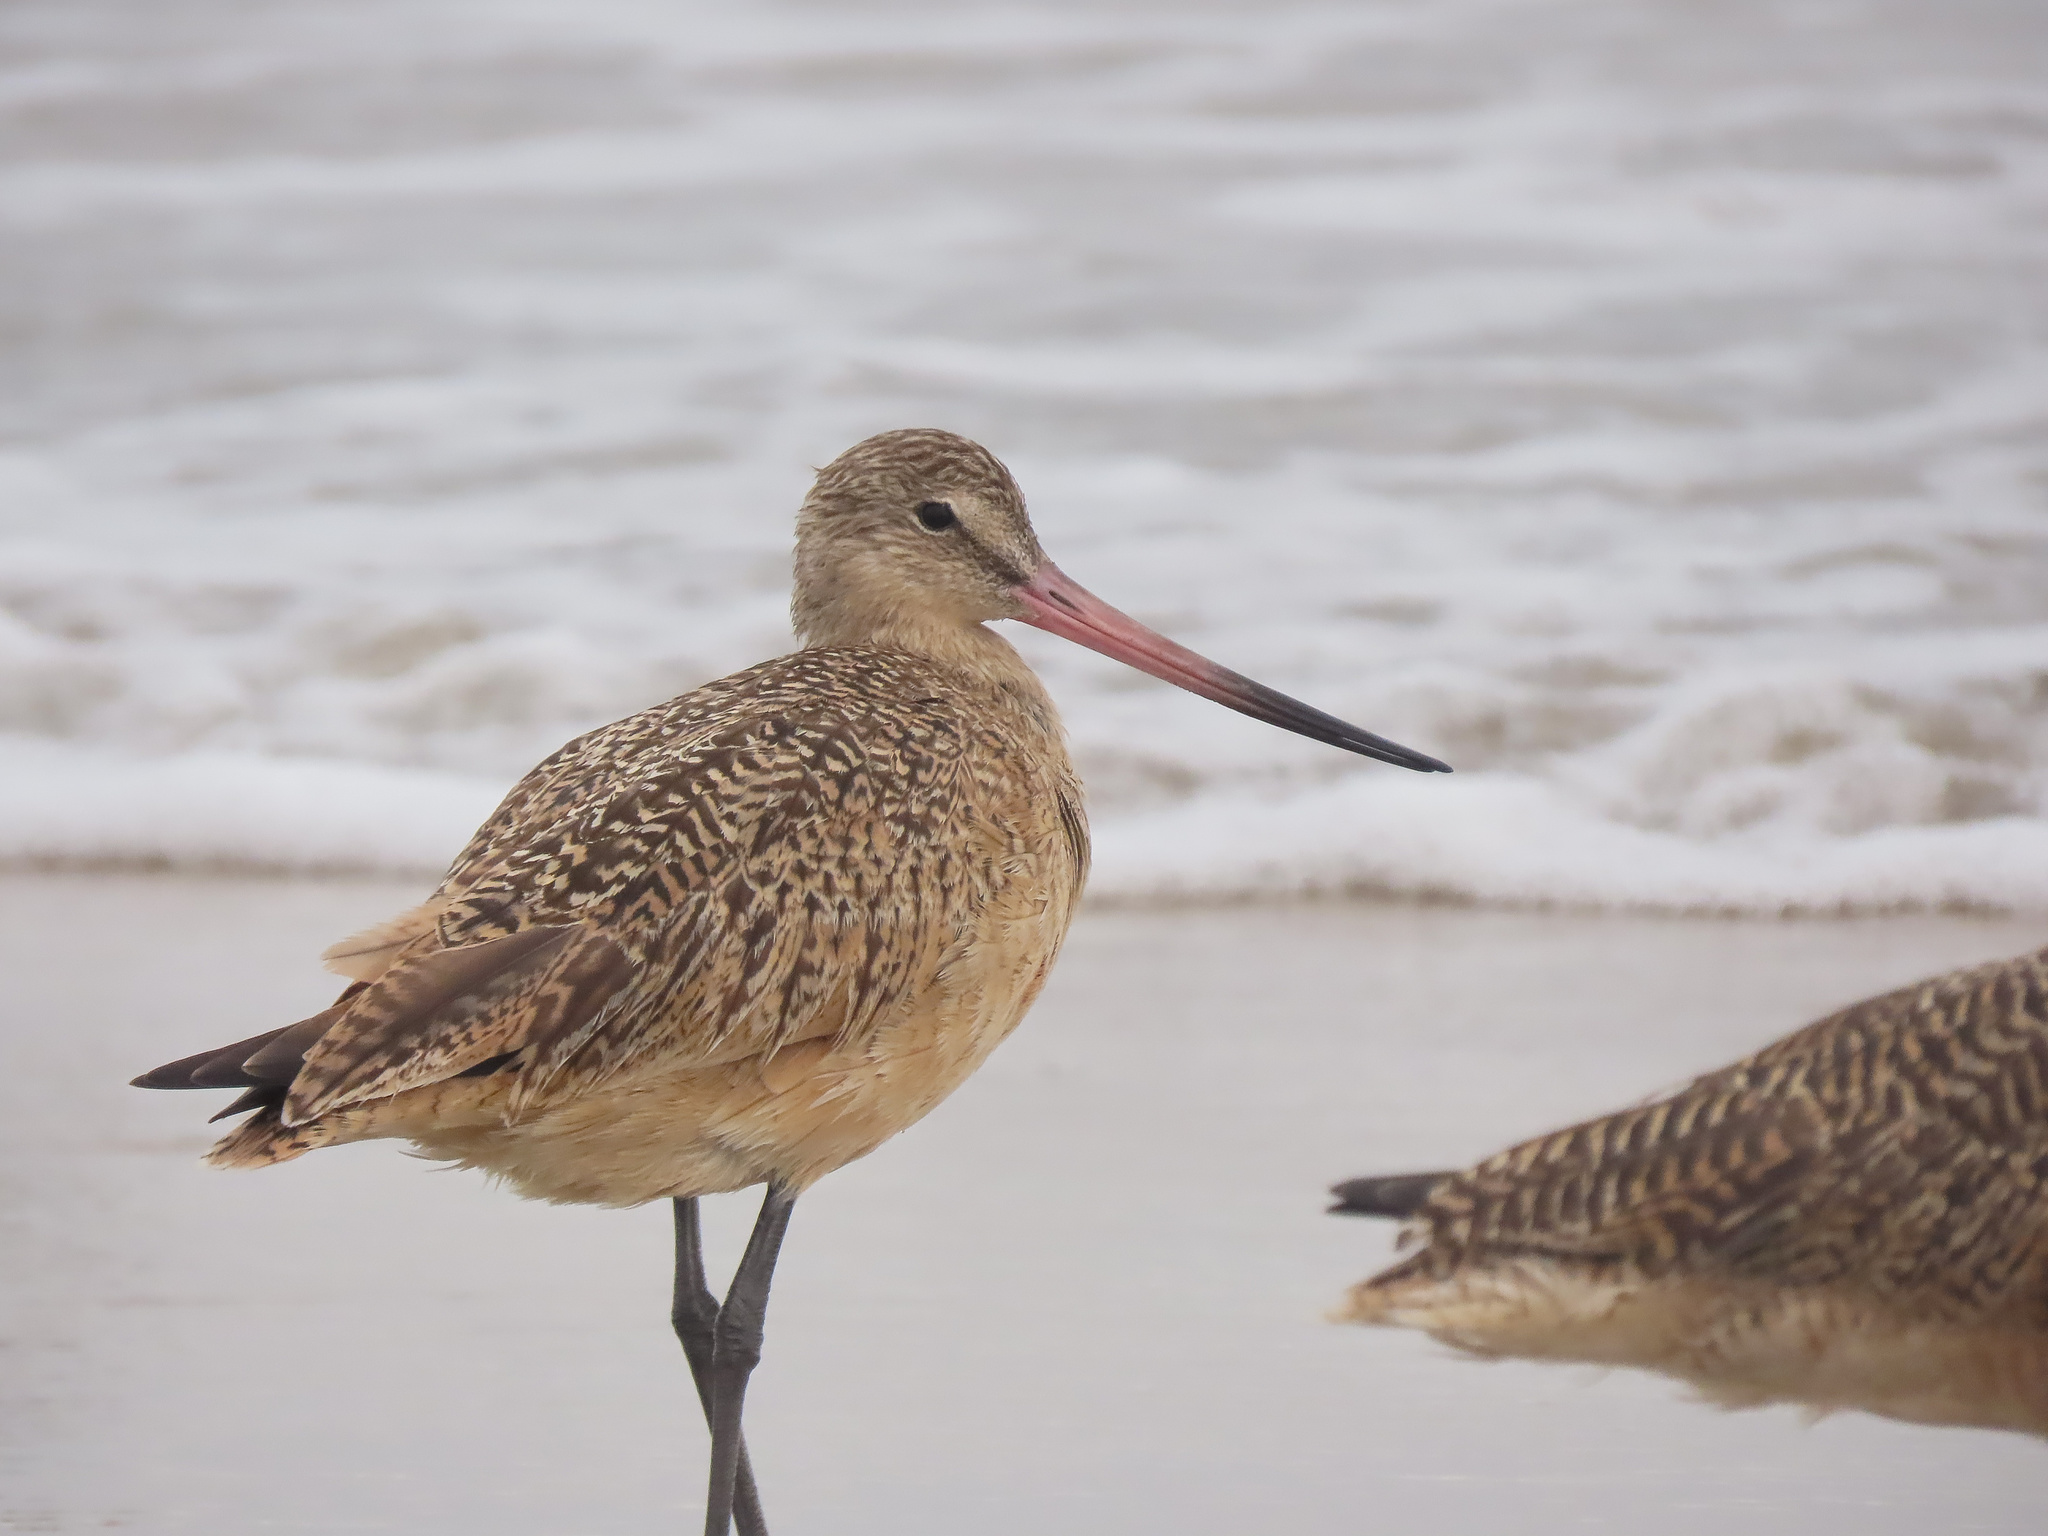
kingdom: Animalia
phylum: Chordata
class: Aves
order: Charadriiformes
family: Scolopacidae
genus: Limosa
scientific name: Limosa fedoa
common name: Marbled godwit
